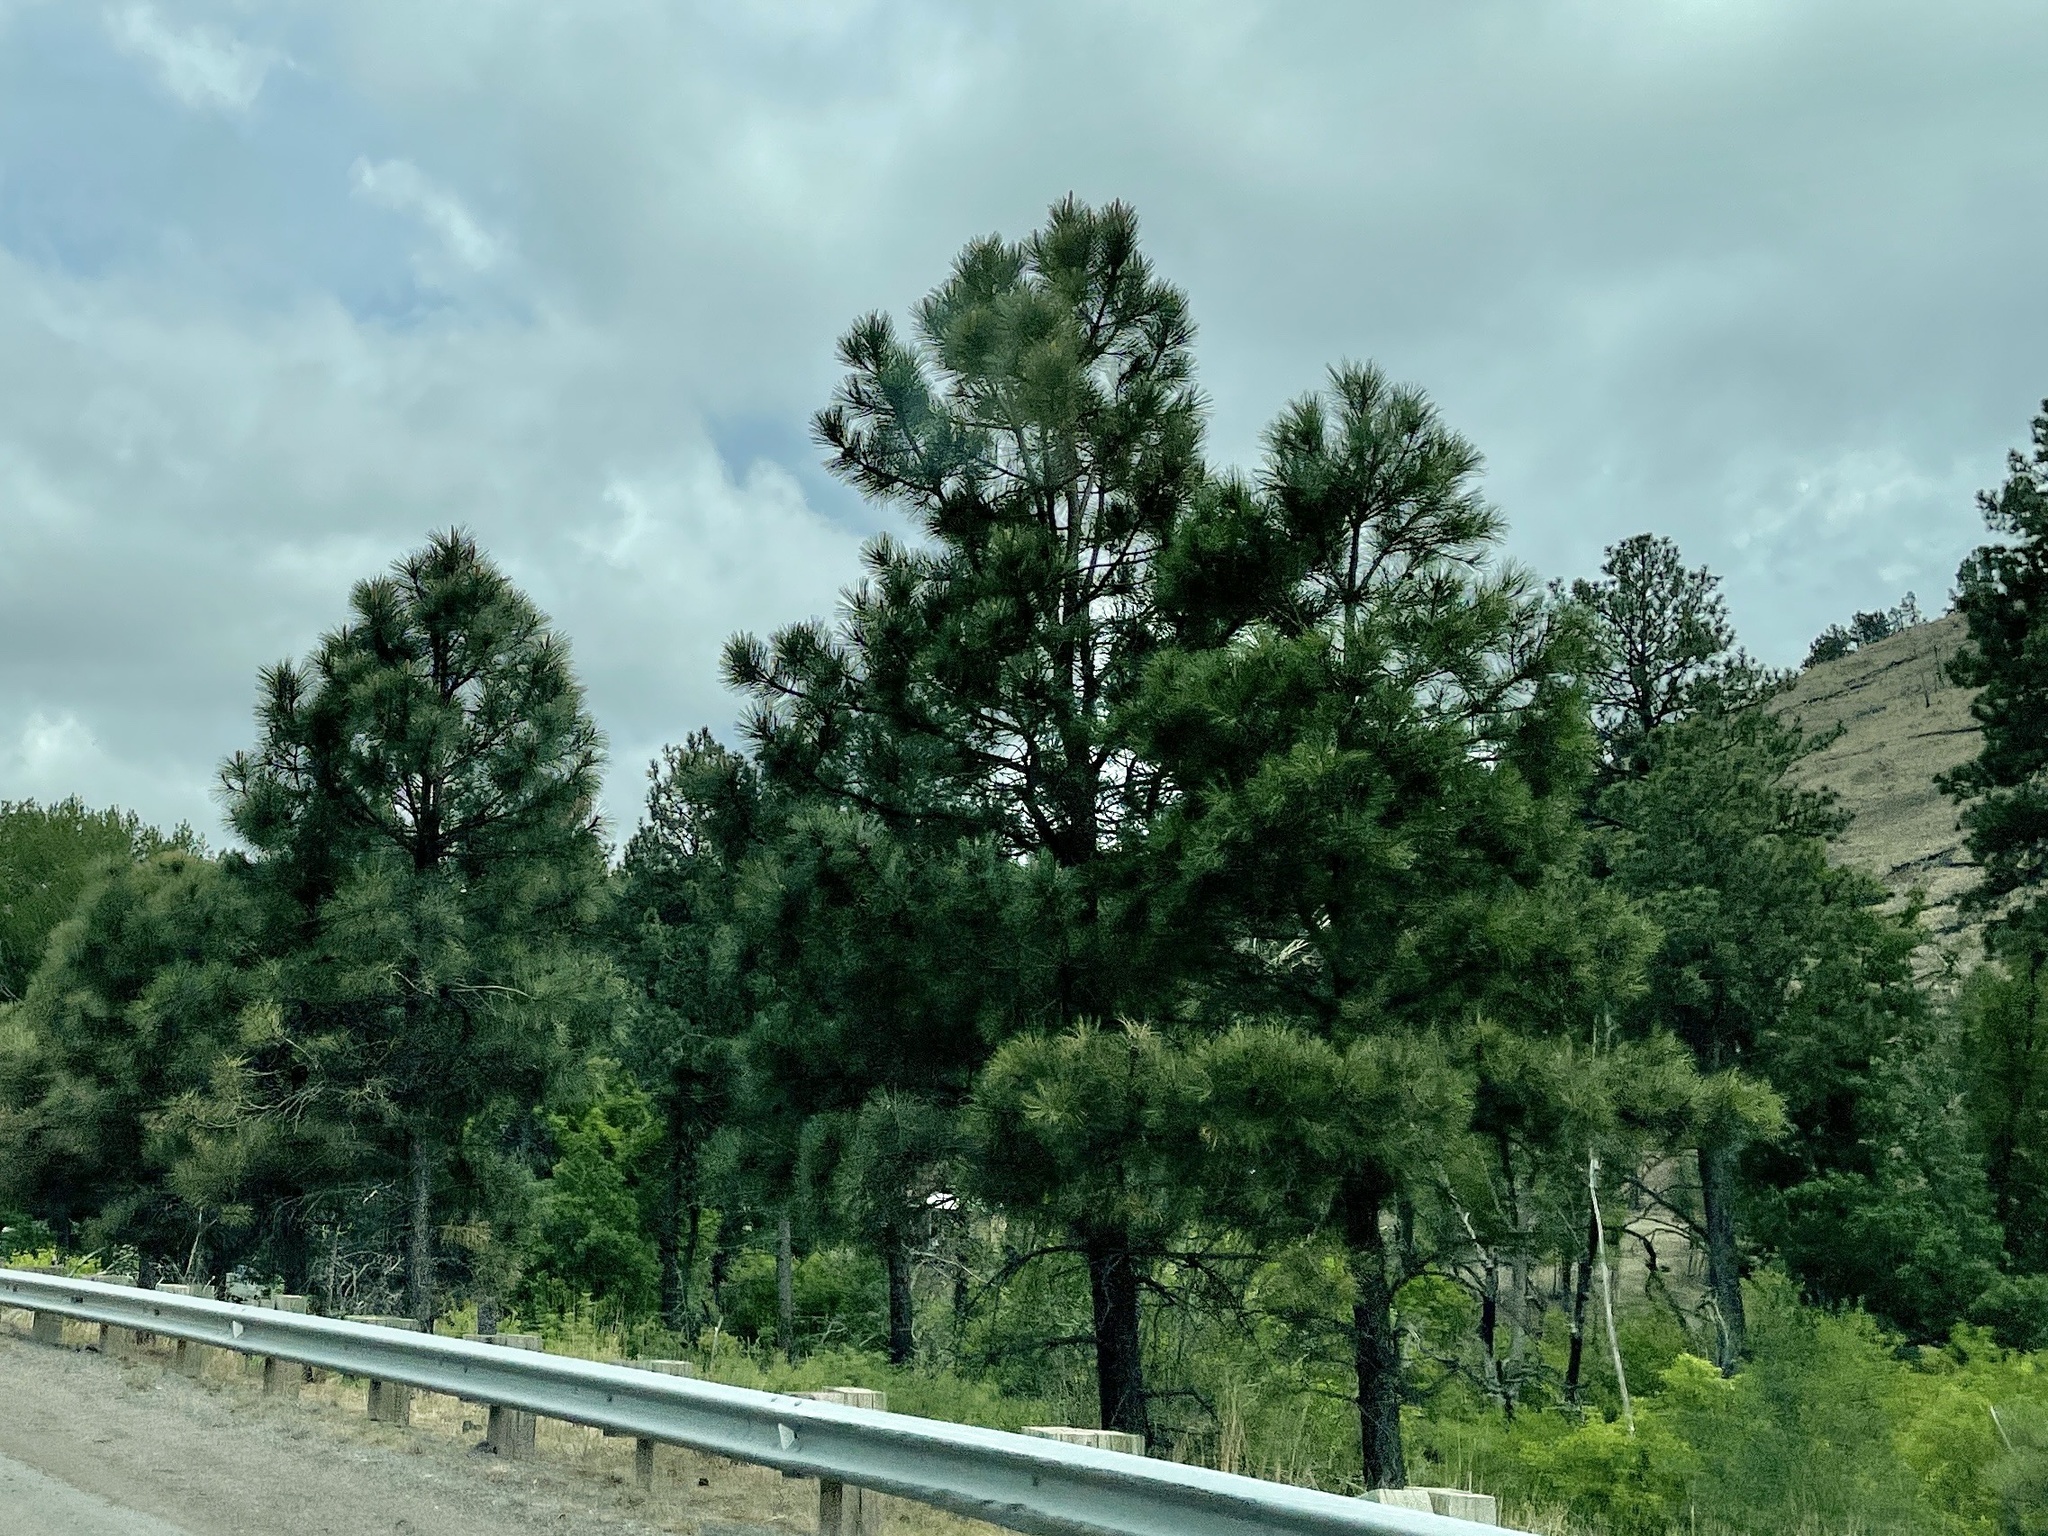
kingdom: Plantae
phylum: Tracheophyta
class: Pinopsida
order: Pinales
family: Pinaceae
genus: Pinus
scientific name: Pinus ponderosa
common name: Western yellow-pine
